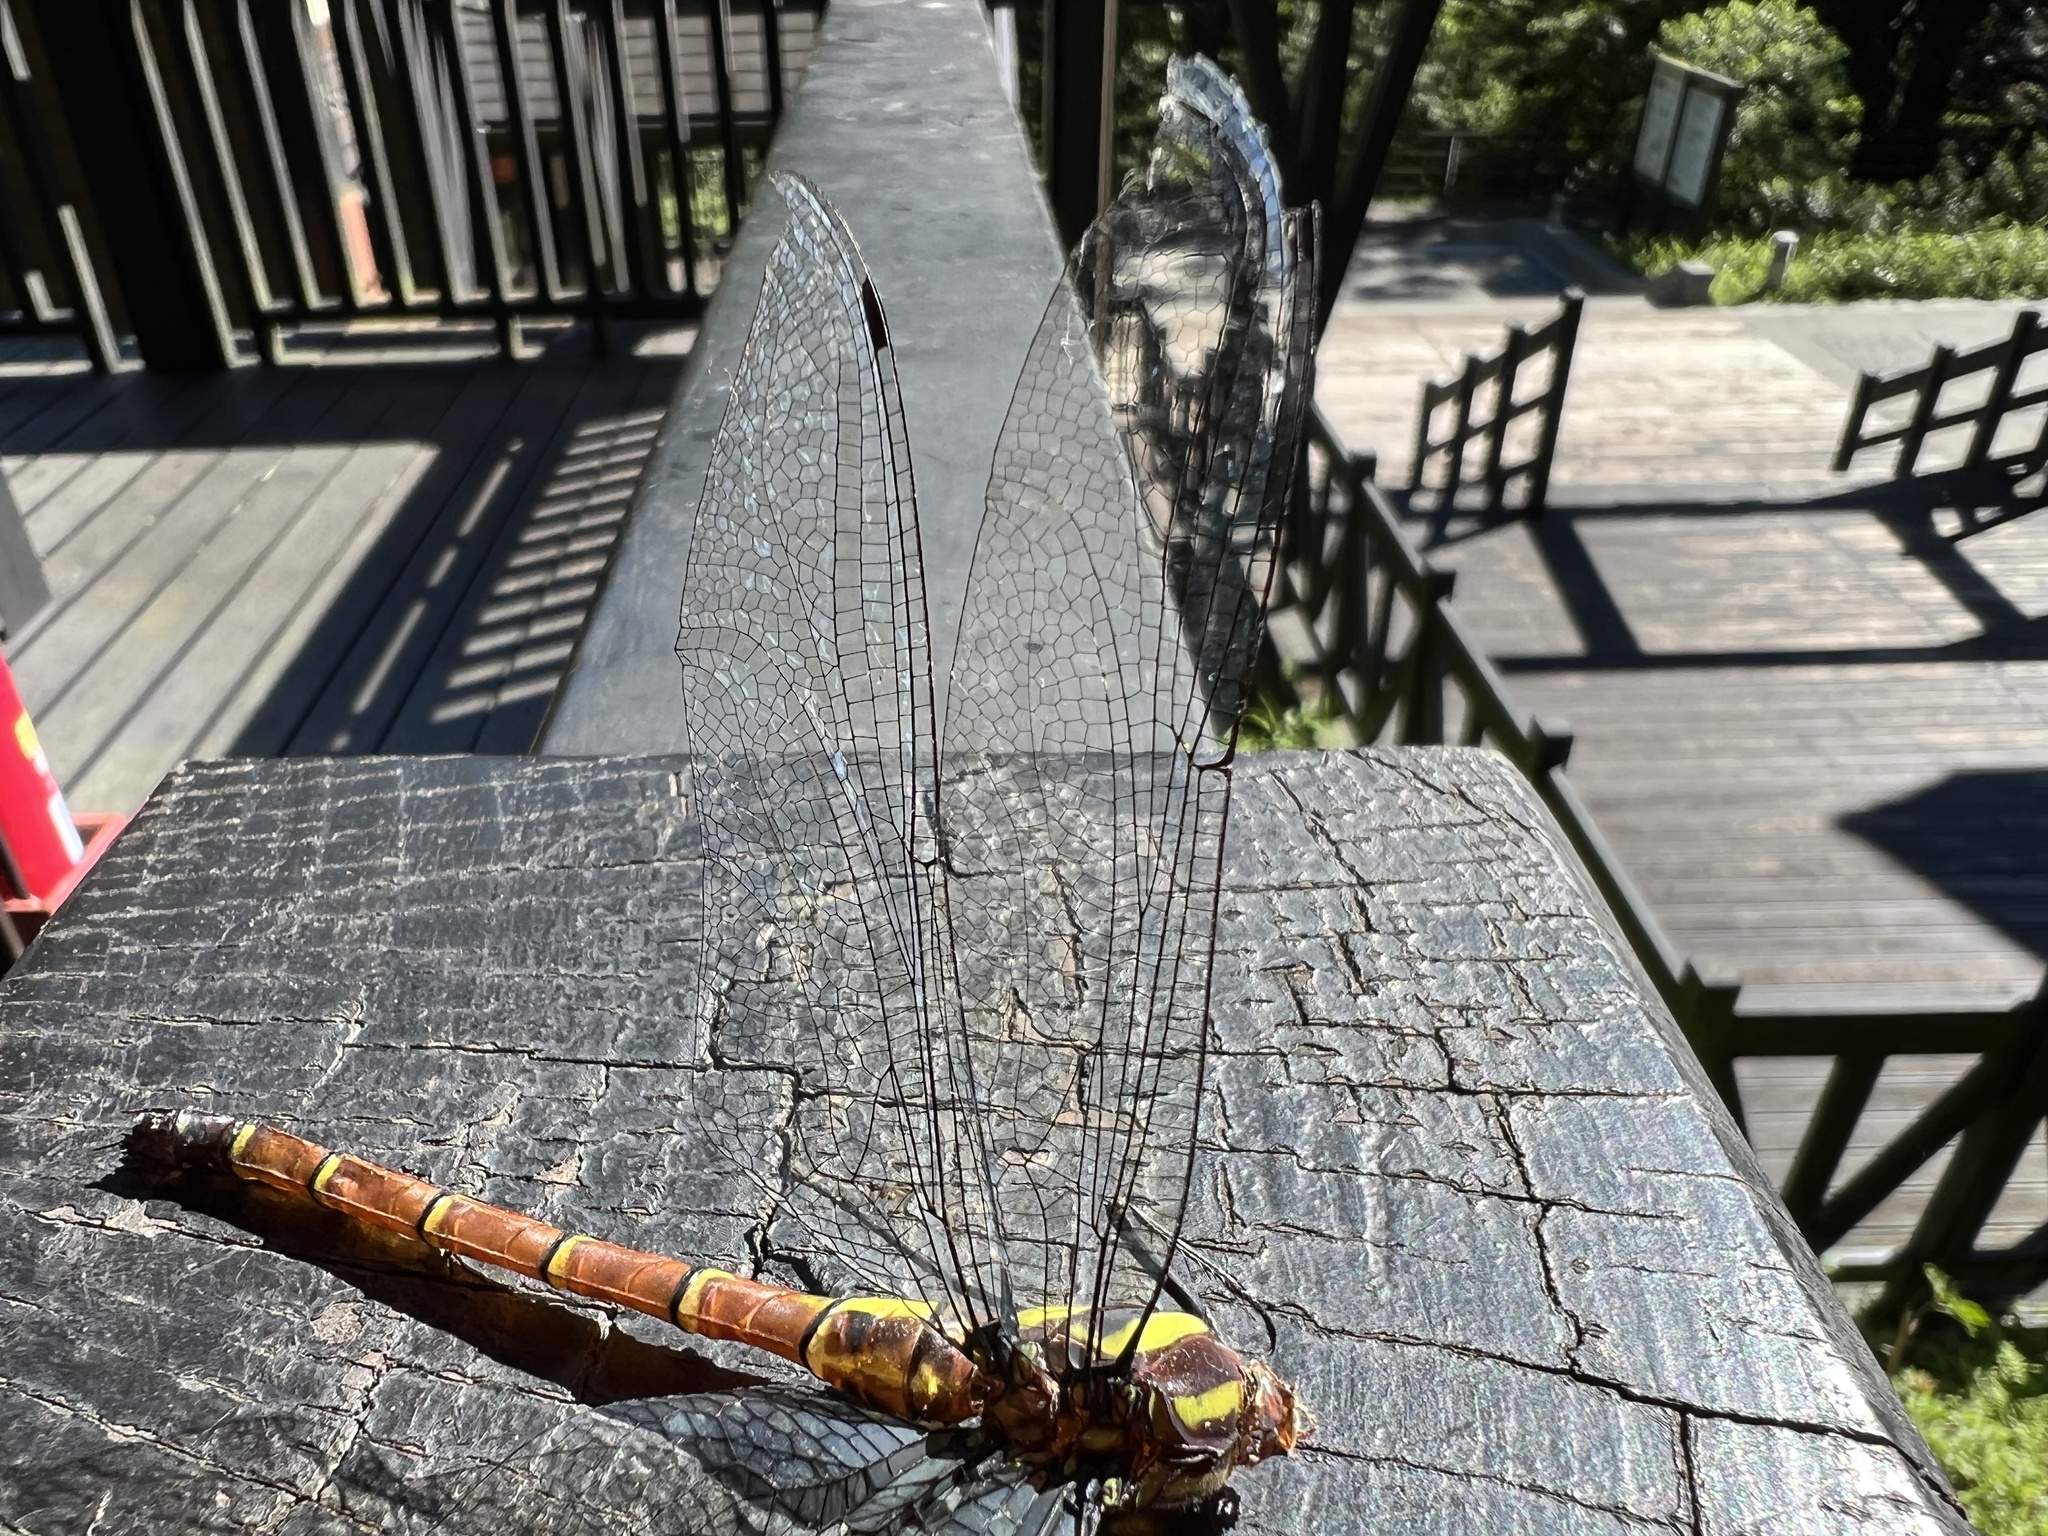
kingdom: Animalia
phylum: Arthropoda
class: Insecta
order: Odonata
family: Aeshnidae
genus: Indaeschna
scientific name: Indaeschna
